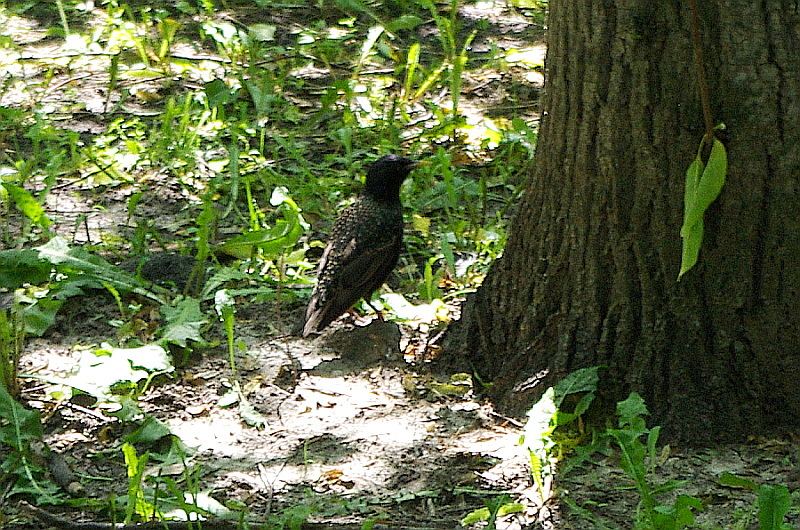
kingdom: Animalia
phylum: Chordata
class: Aves
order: Passeriformes
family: Sturnidae
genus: Sturnus
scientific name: Sturnus vulgaris
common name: Common starling
